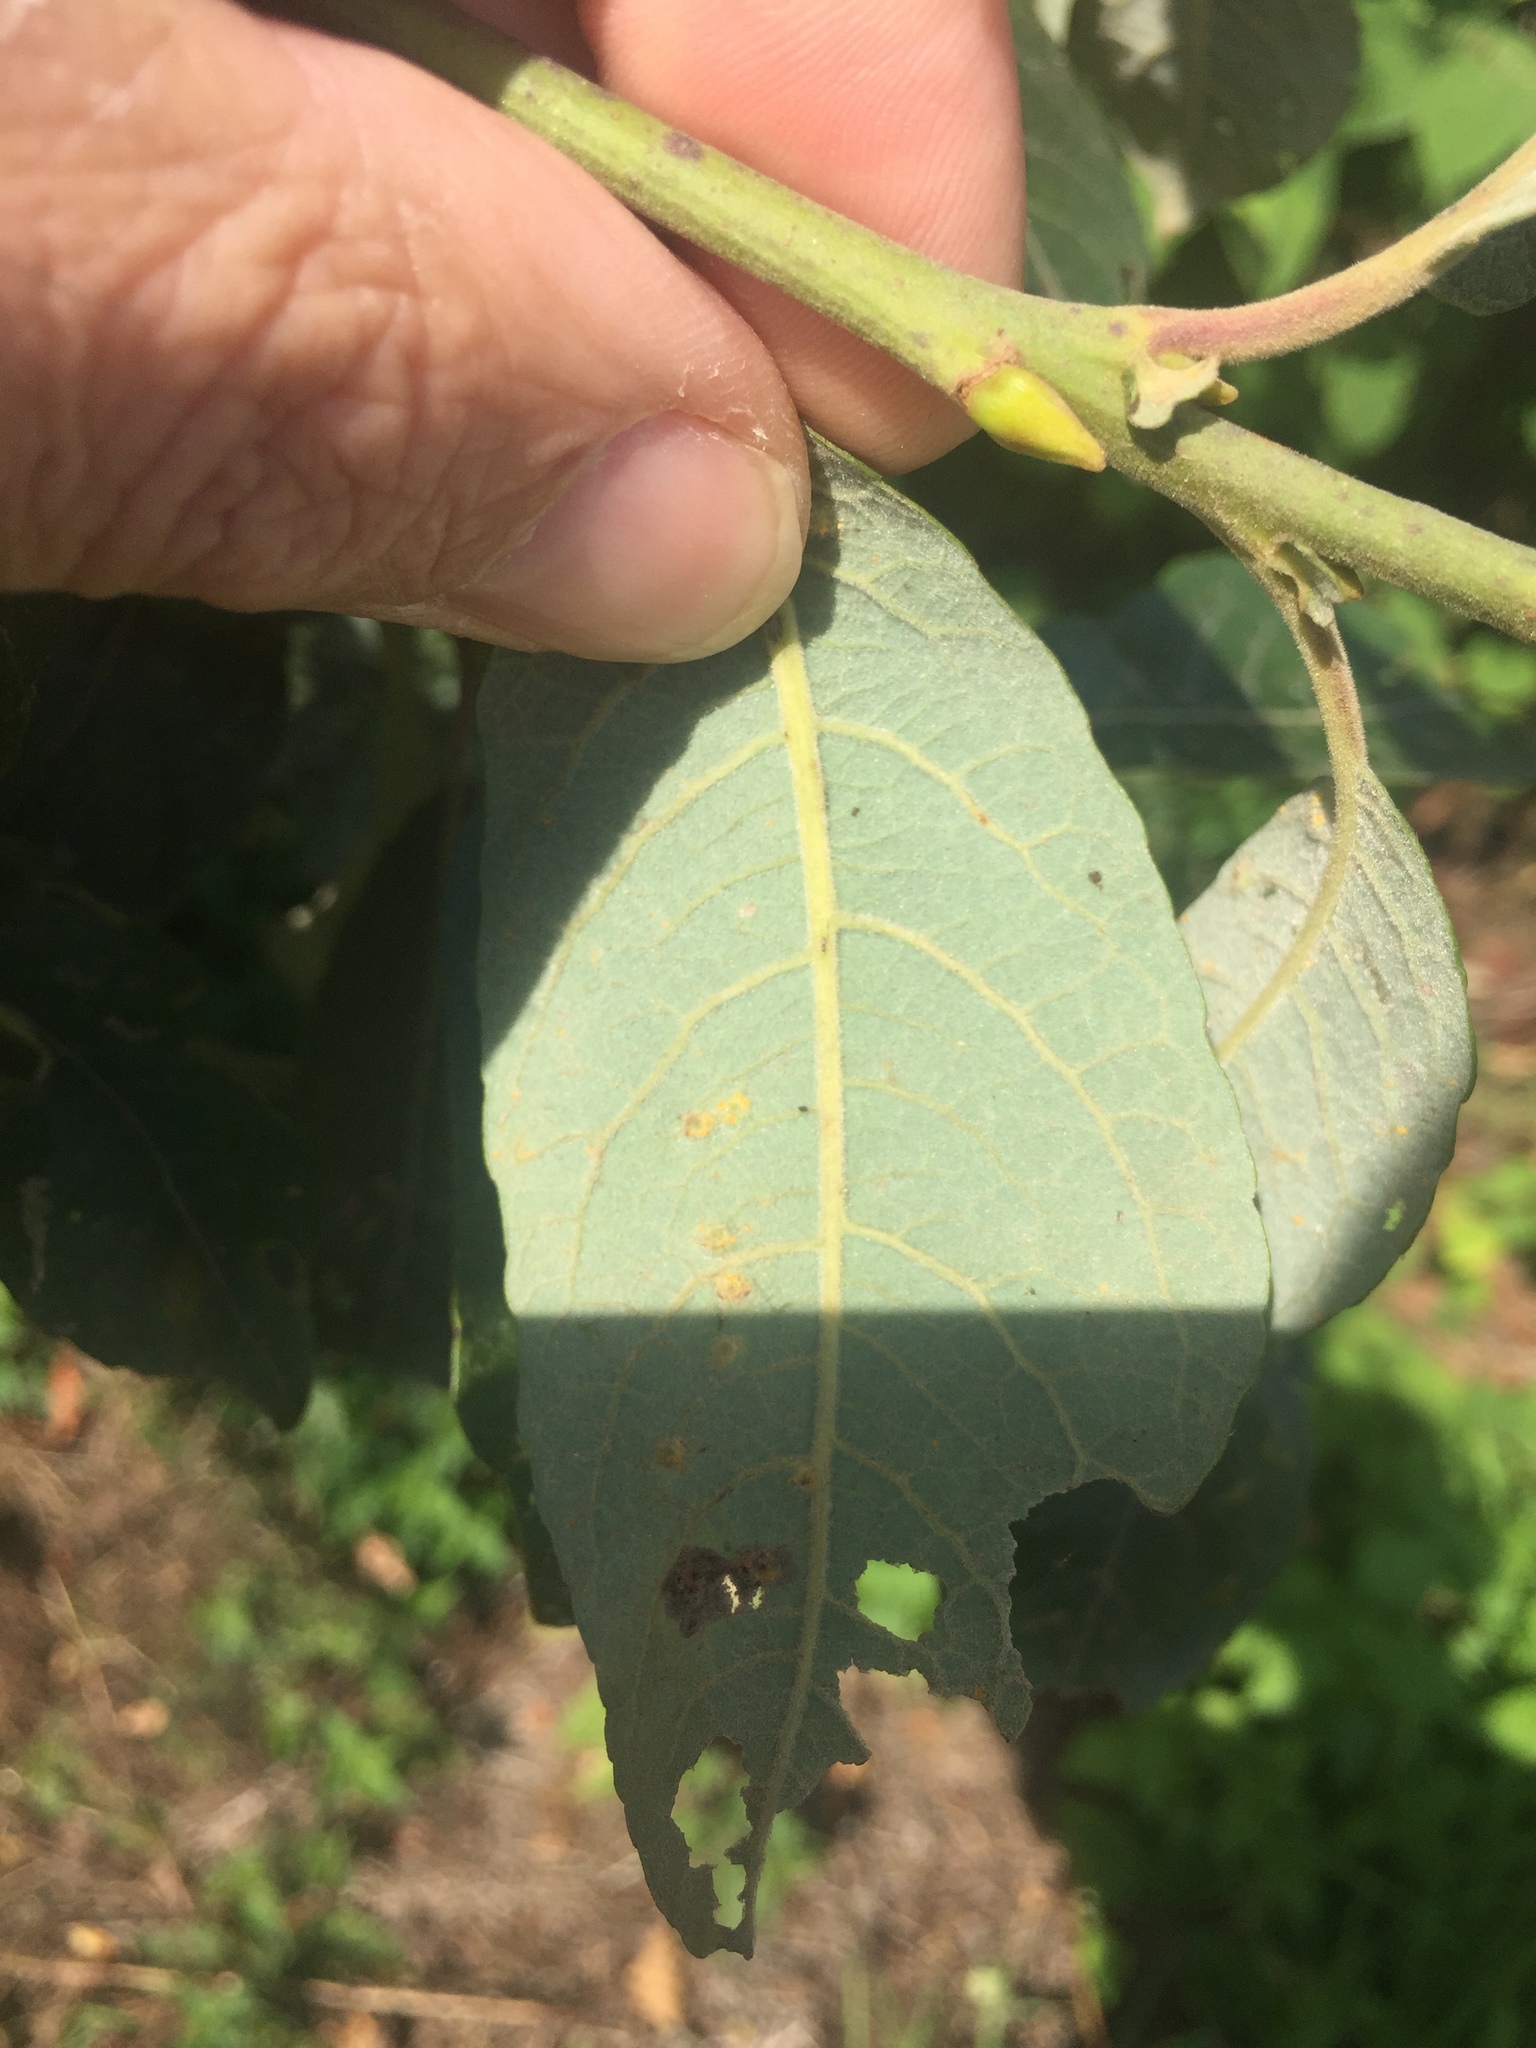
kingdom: Animalia
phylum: Arthropoda
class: Insecta
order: Diptera
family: Cecidomyiidae
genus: Iteomyia
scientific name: Iteomyia capreae
